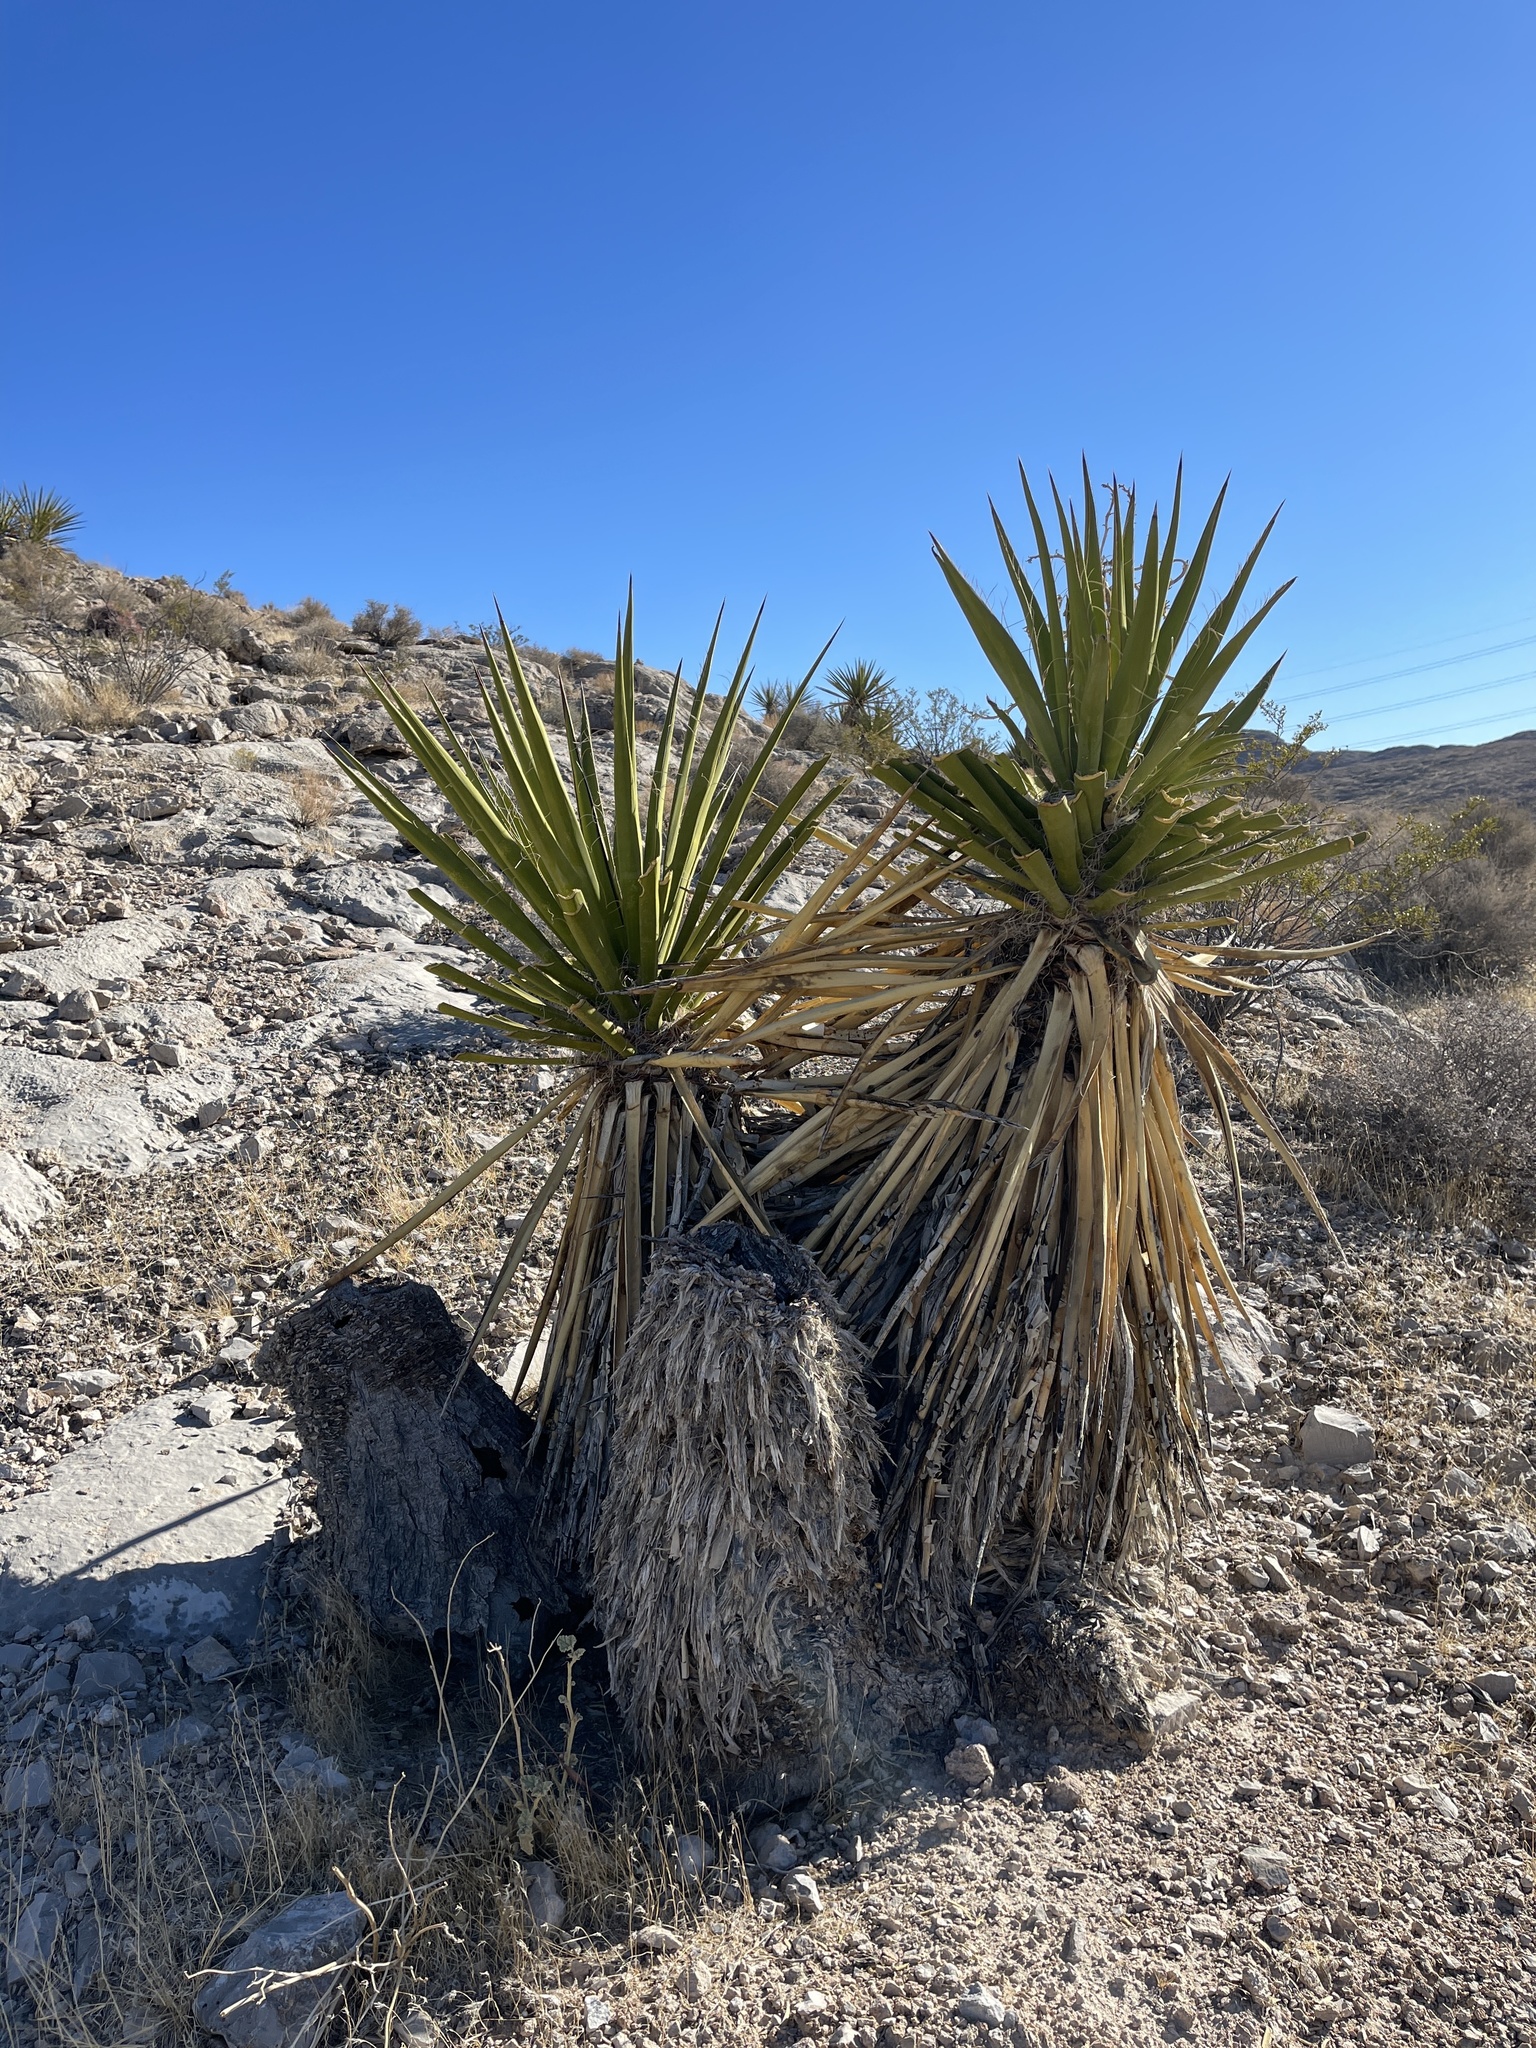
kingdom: Plantae
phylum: Tracheophyta
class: Liliopsida
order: Asparagales
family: Asparagaceae
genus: Yucca
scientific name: Yucca schidigera
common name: Mojave yucca
